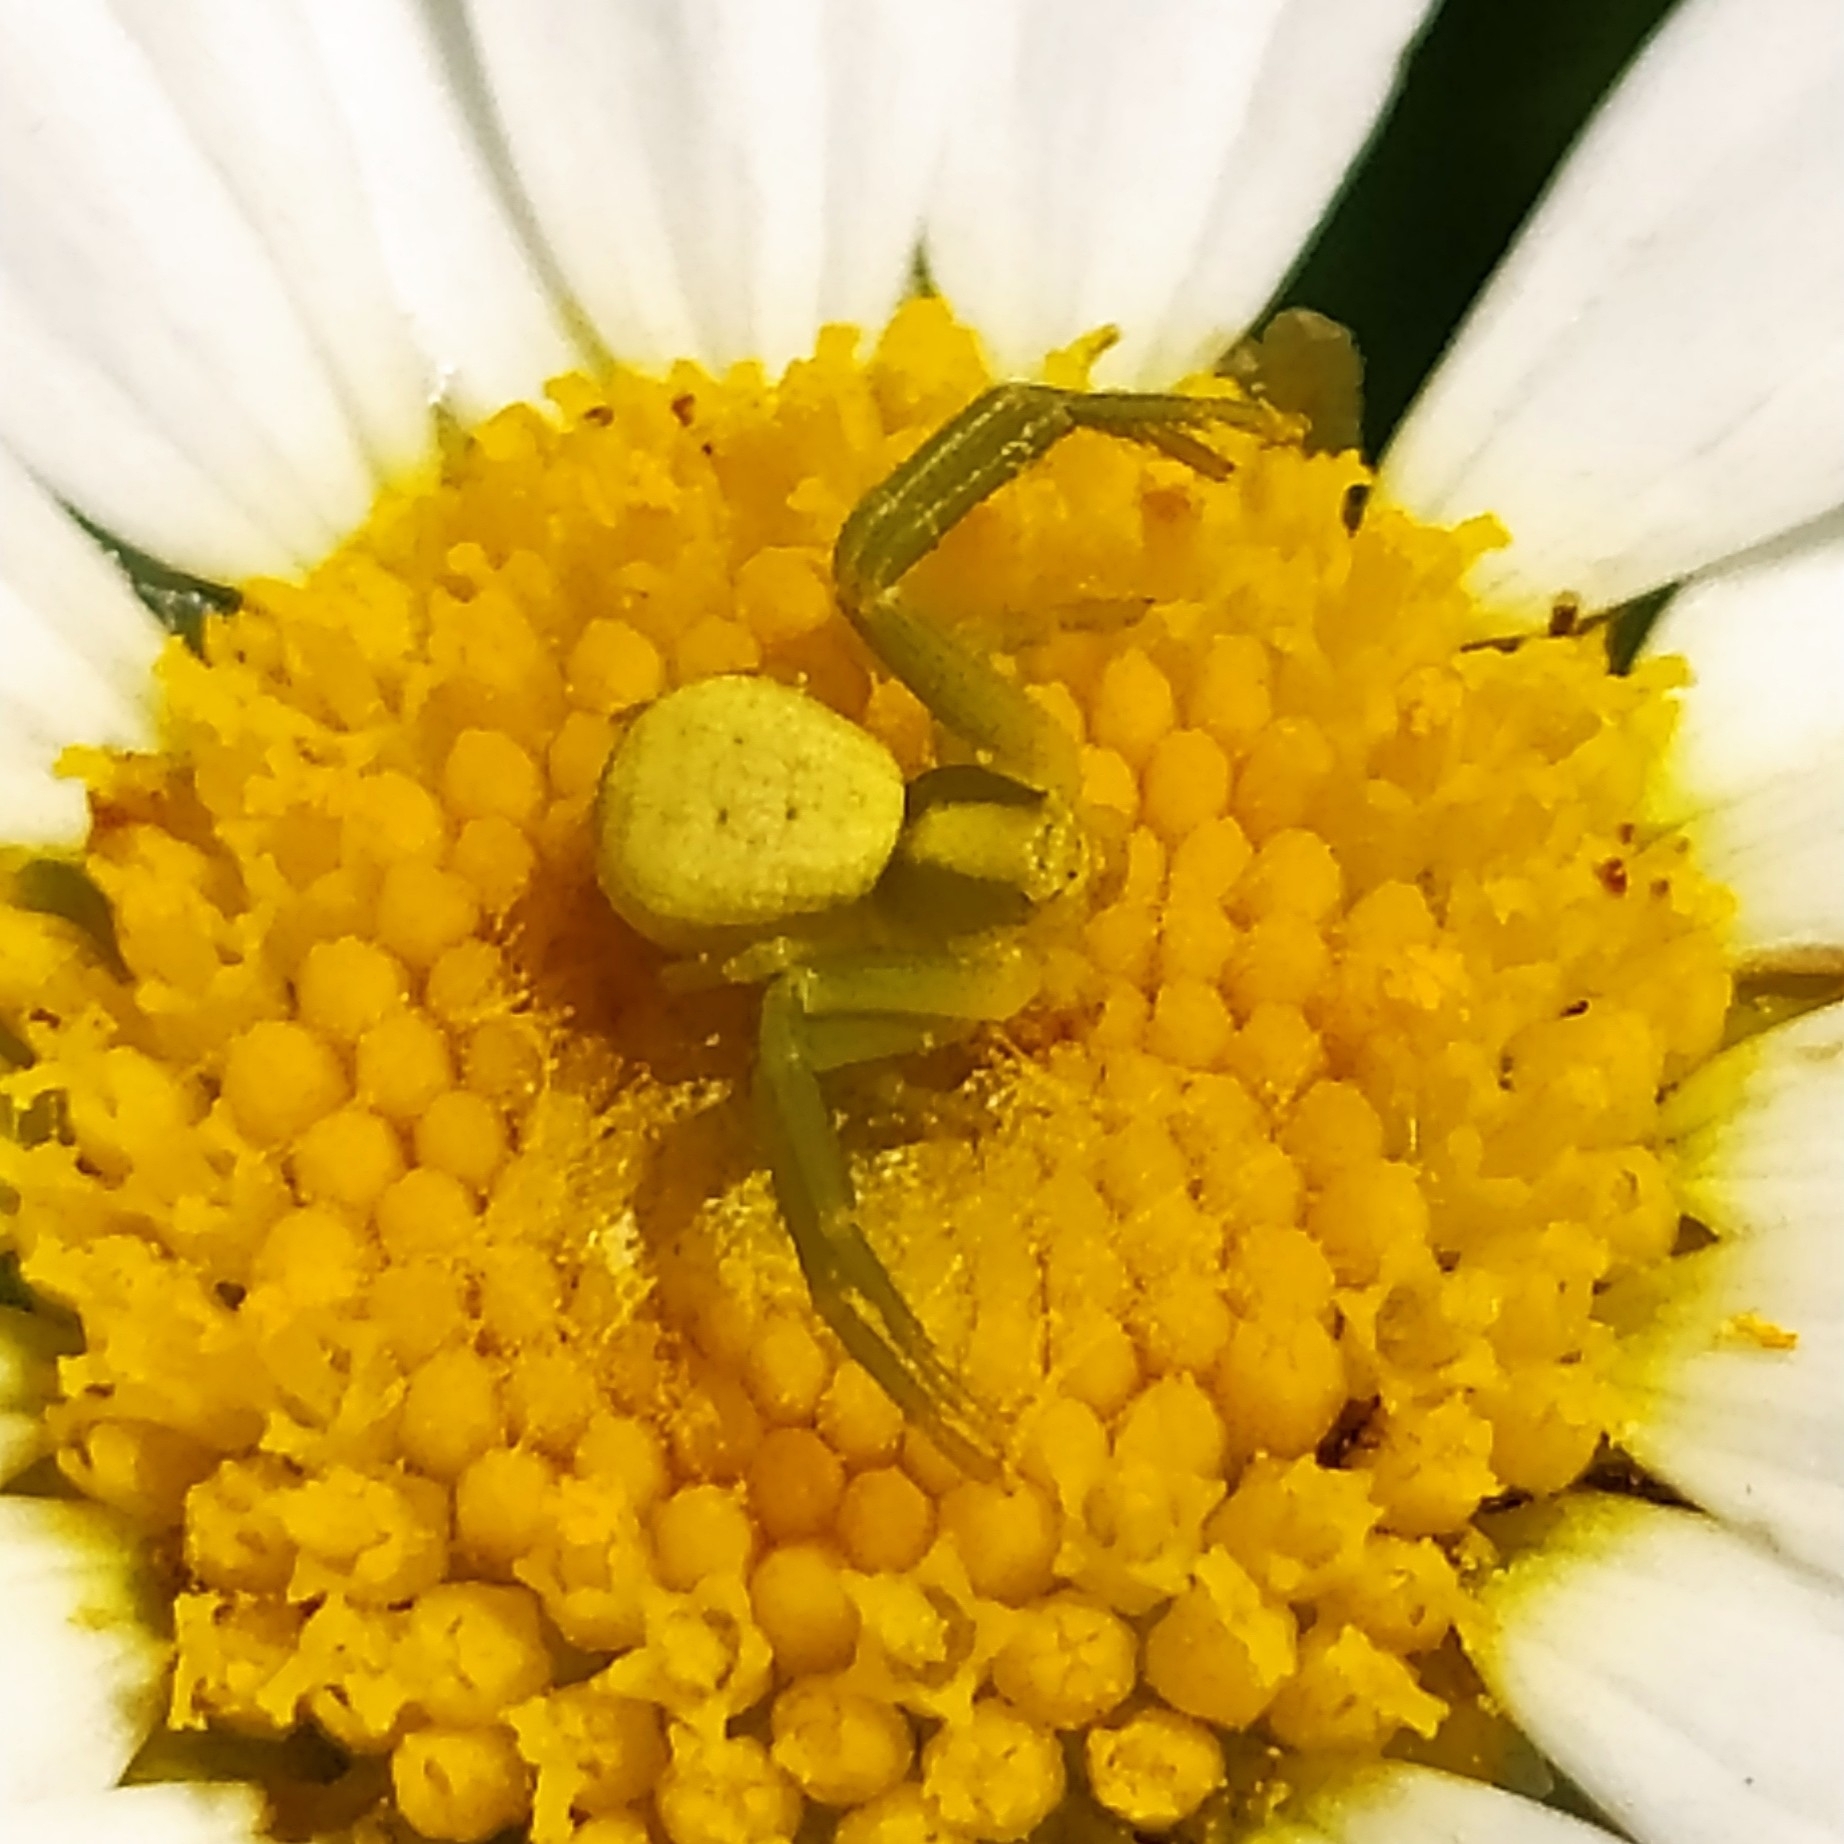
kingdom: Animalia
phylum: Arthropoda
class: Arachnida
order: Araneae
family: Thomisidae
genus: Misumena
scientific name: Misumena vatia
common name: Goldenrod crab spider
